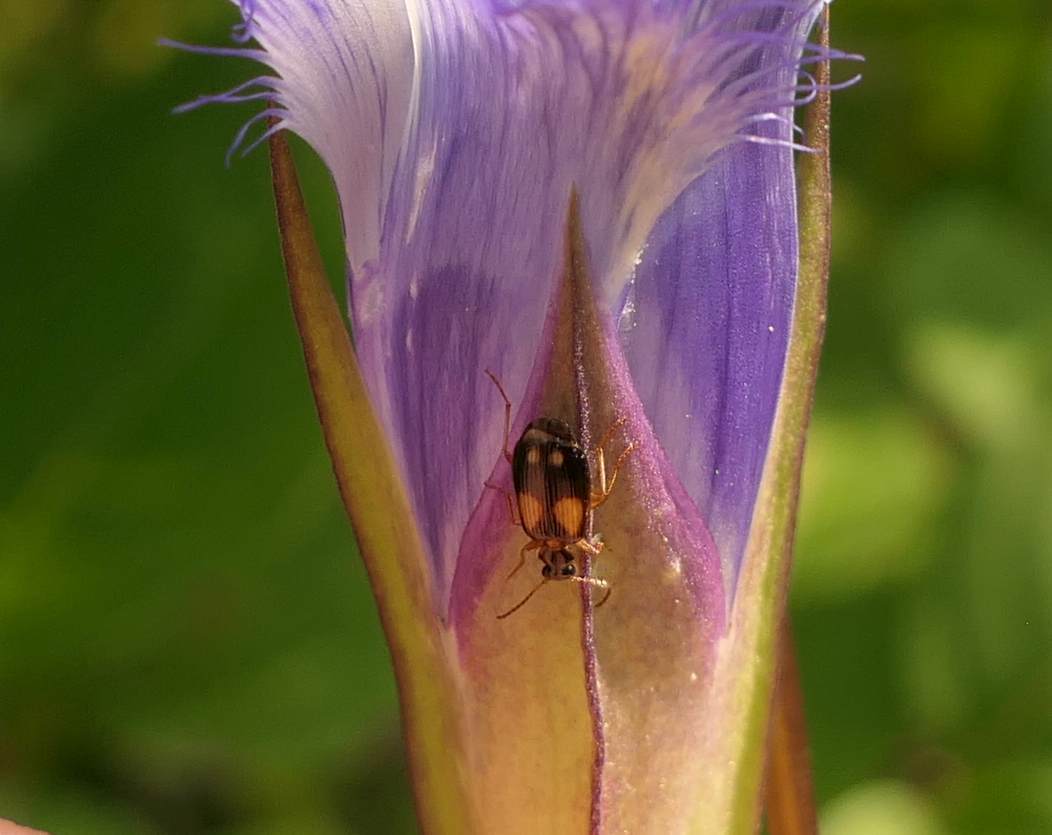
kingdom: Animalia
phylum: Arthropoda
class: Insecta
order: Coleoptera
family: Carabidae
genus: Lebia
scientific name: Lebia ornata
